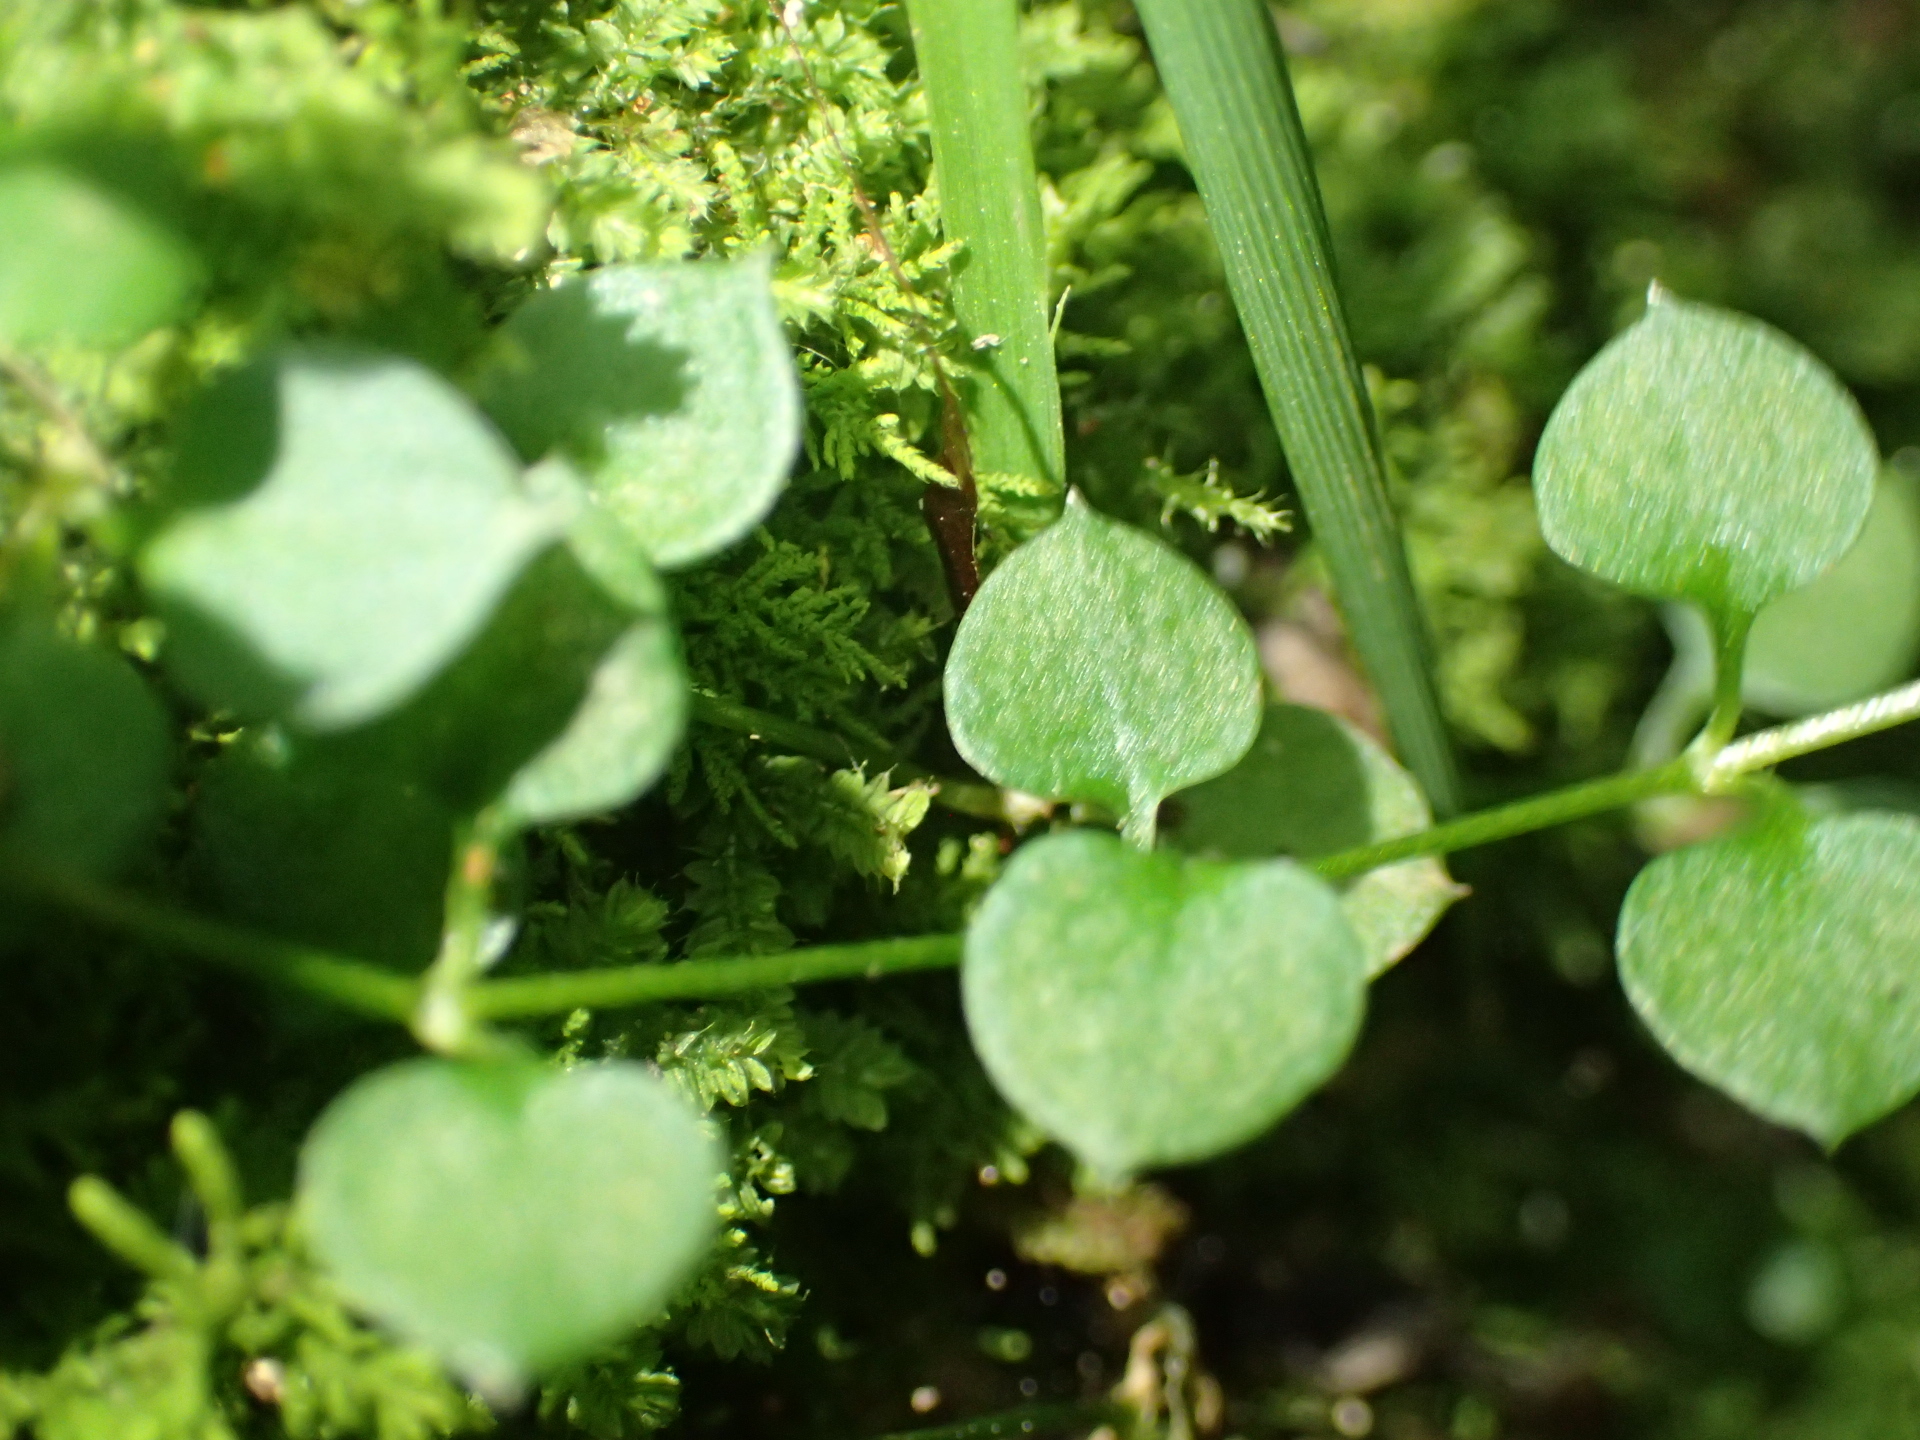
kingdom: Plantae
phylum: Tracheophyta
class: Magnoliopsida
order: Caryophyllales
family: Caryophyllaceae
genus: Stellaria
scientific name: Stellaria parviflora
